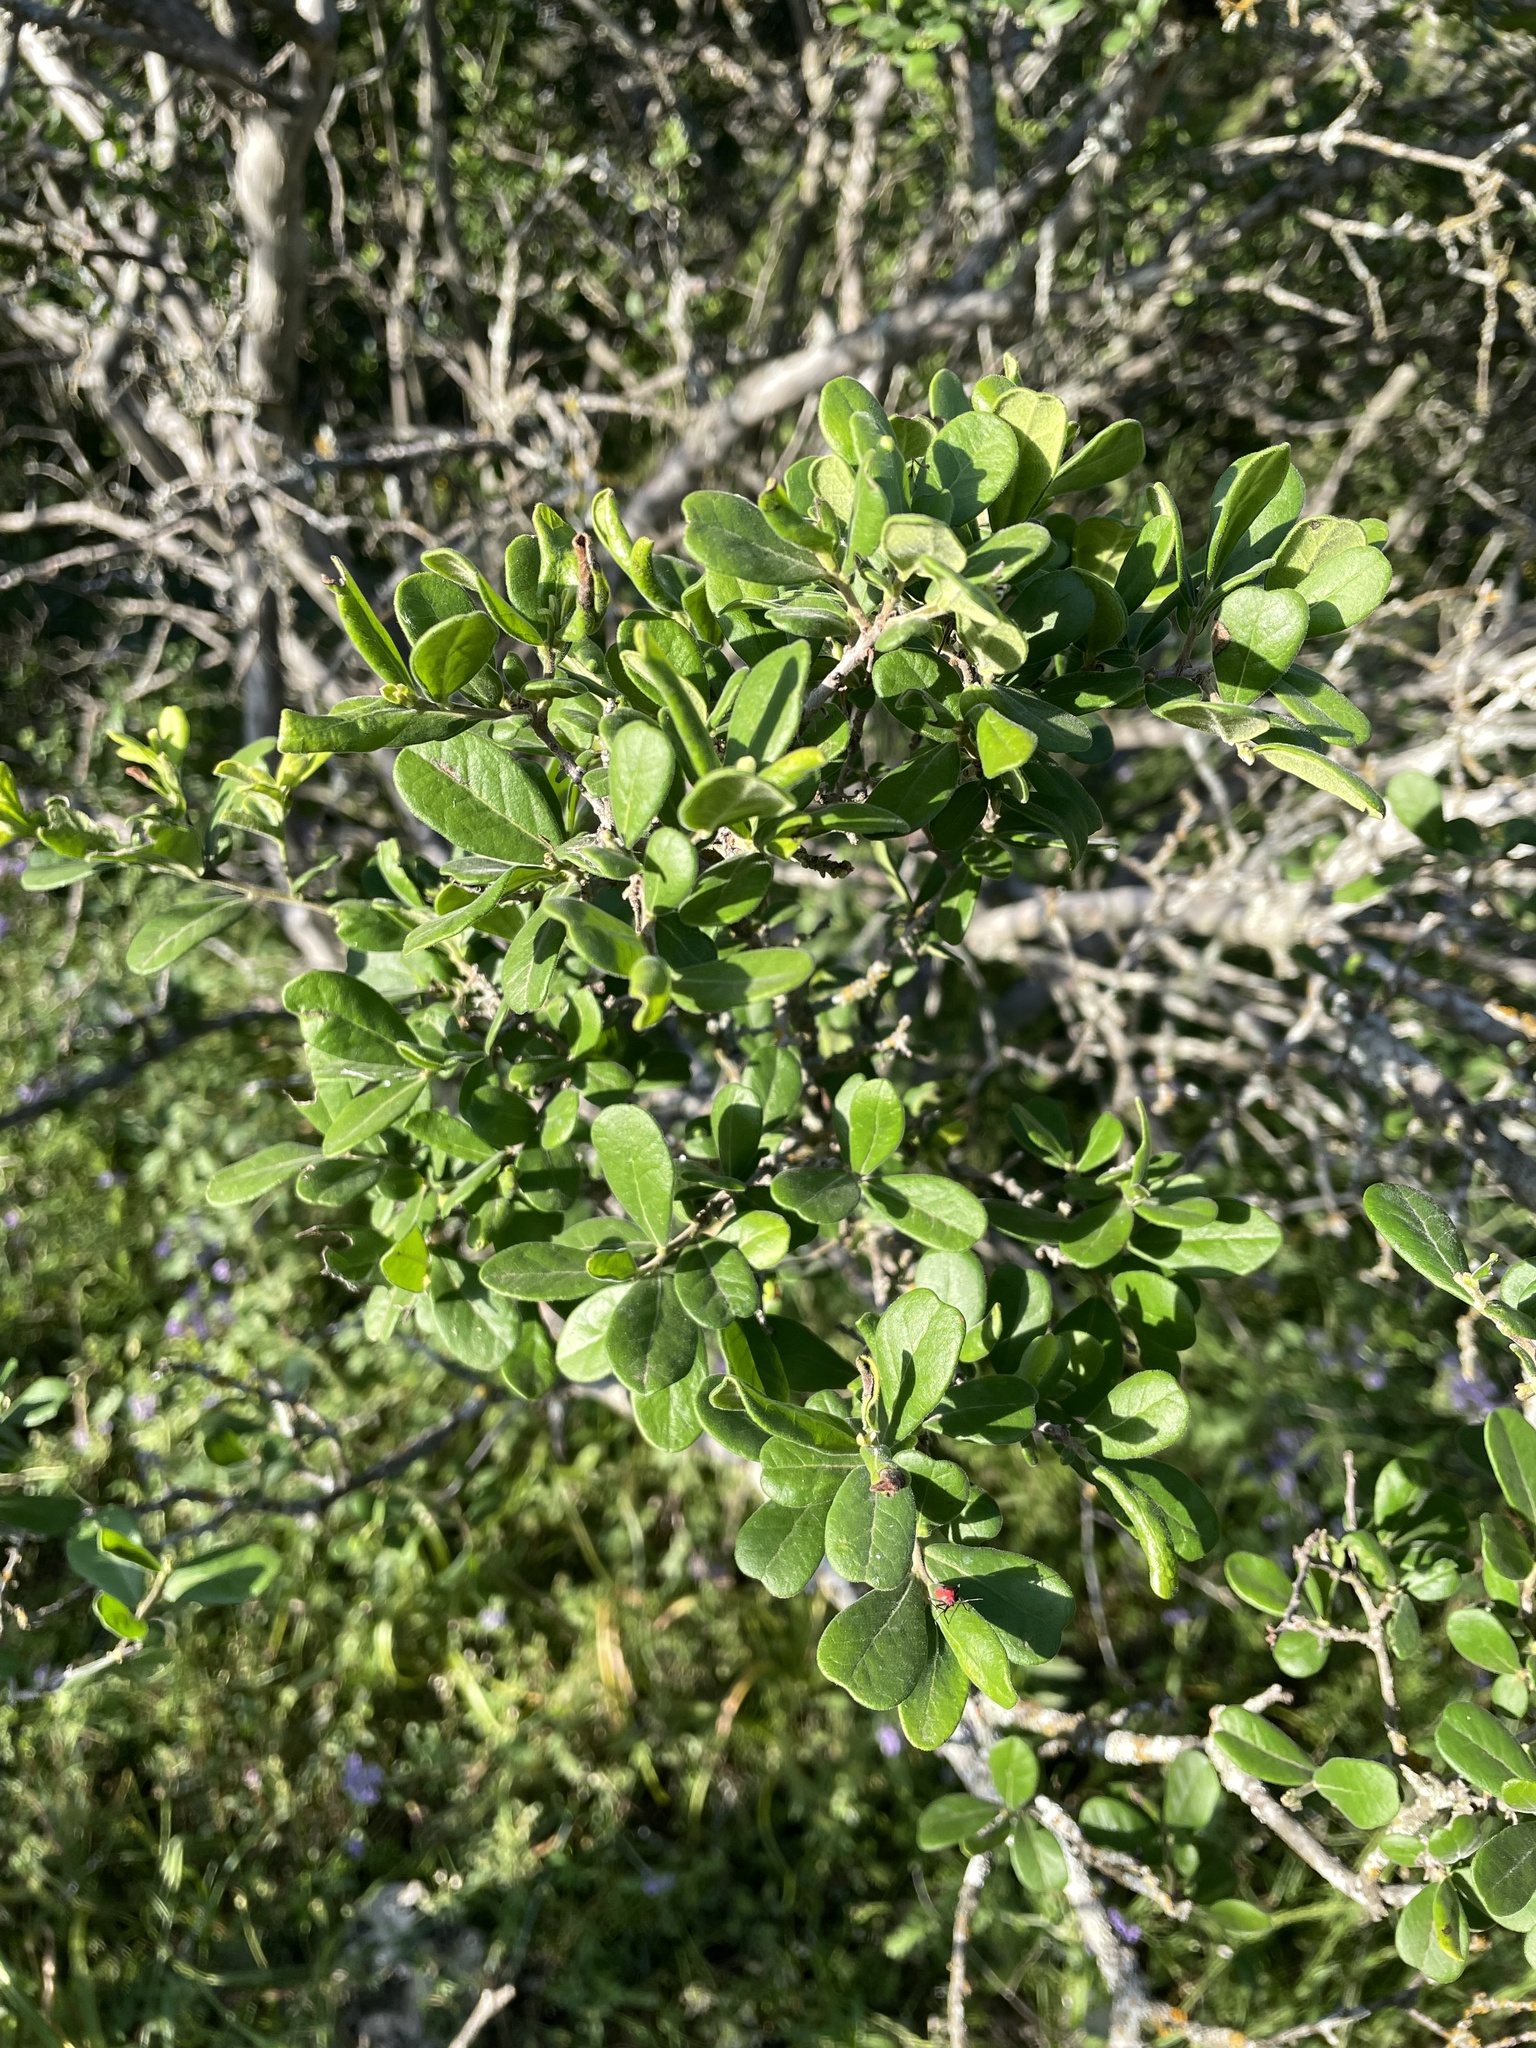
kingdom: Plantae
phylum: Tracheophyta
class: Magnoliopsida
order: Ericales
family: Ebenaceae
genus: Diospyros
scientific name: Diospyros texana
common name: Texas persimmon
